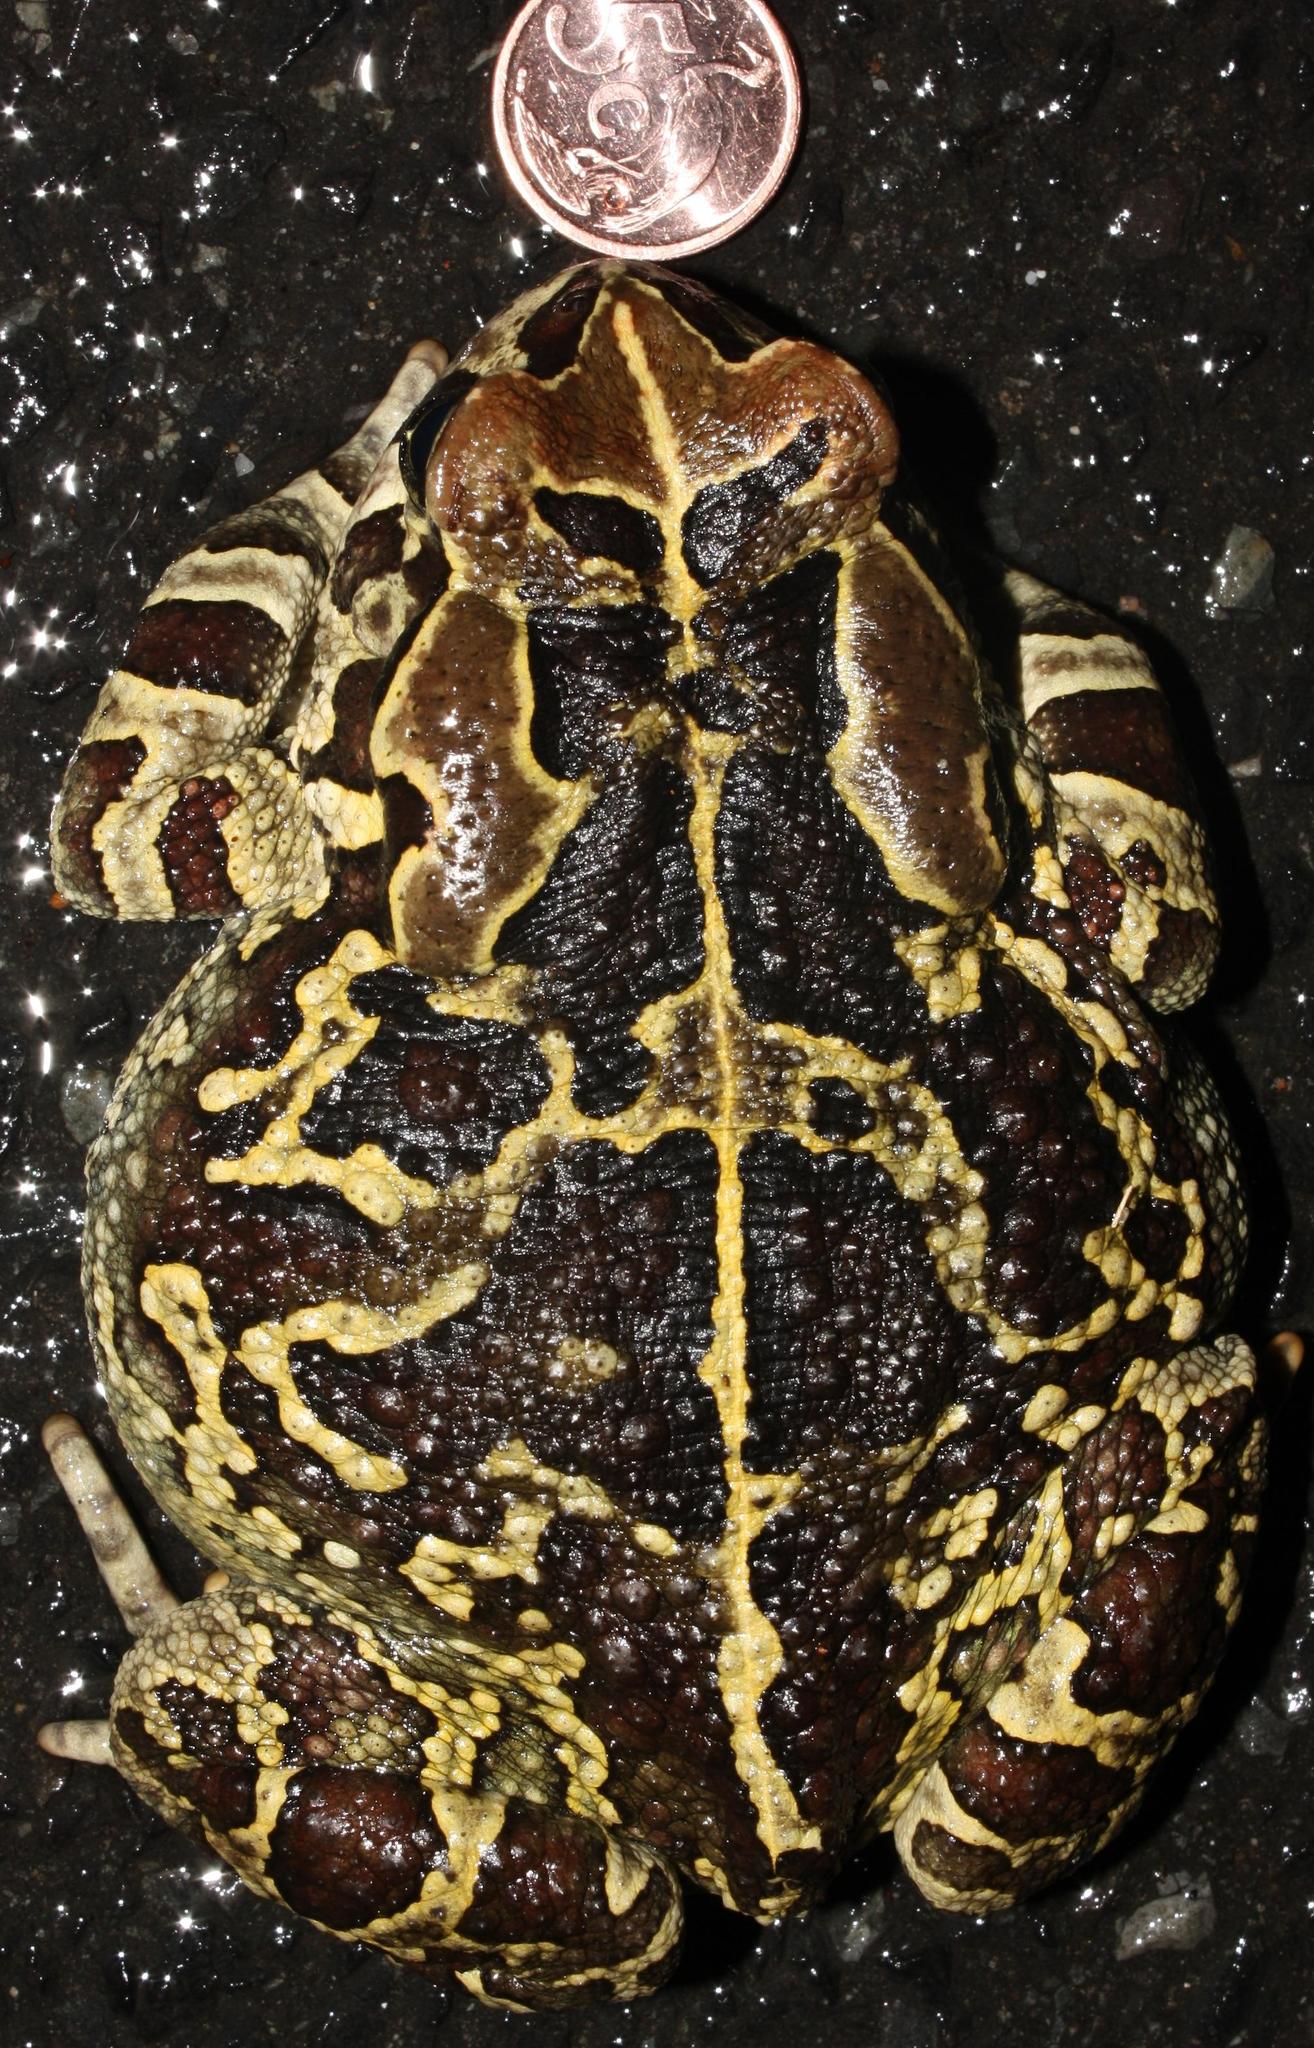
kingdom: Animalia
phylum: Chordata
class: Amphibia
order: Anura
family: Bufonidae
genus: Sclerophrys
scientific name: Sclerophrys pantherina
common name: Panther toad
